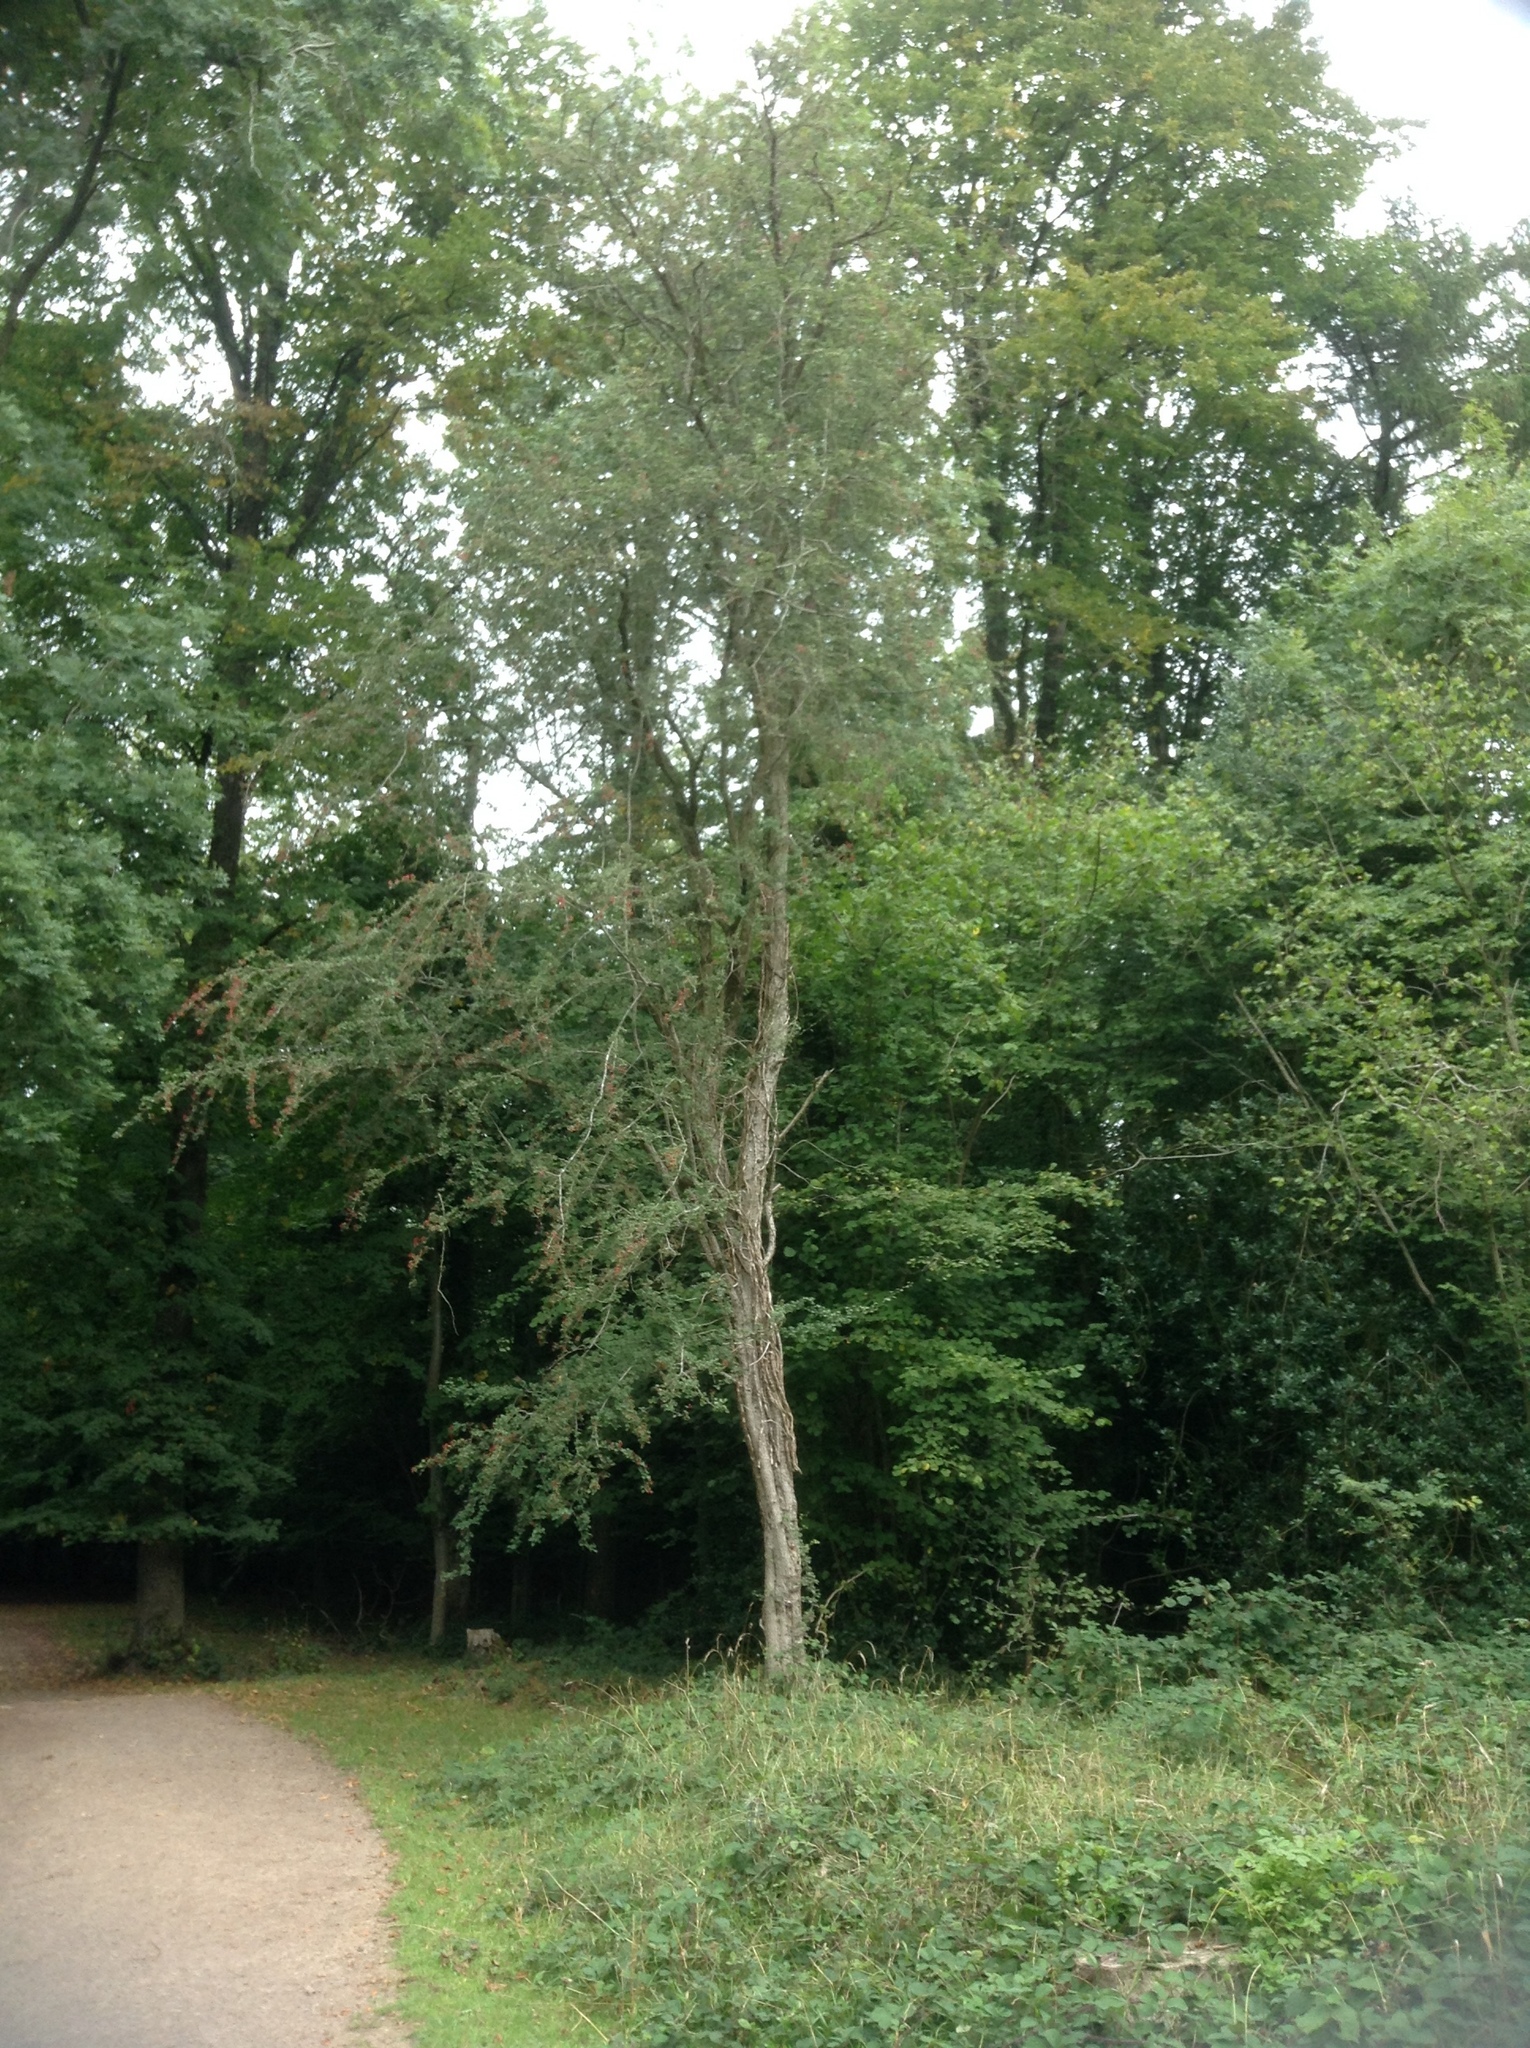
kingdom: Plantae
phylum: Tracheophyta
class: Magnoliopsida
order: Rosales
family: Rosaceae
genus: Crataegus
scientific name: Crataegus monogyna
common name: Hawthorn
